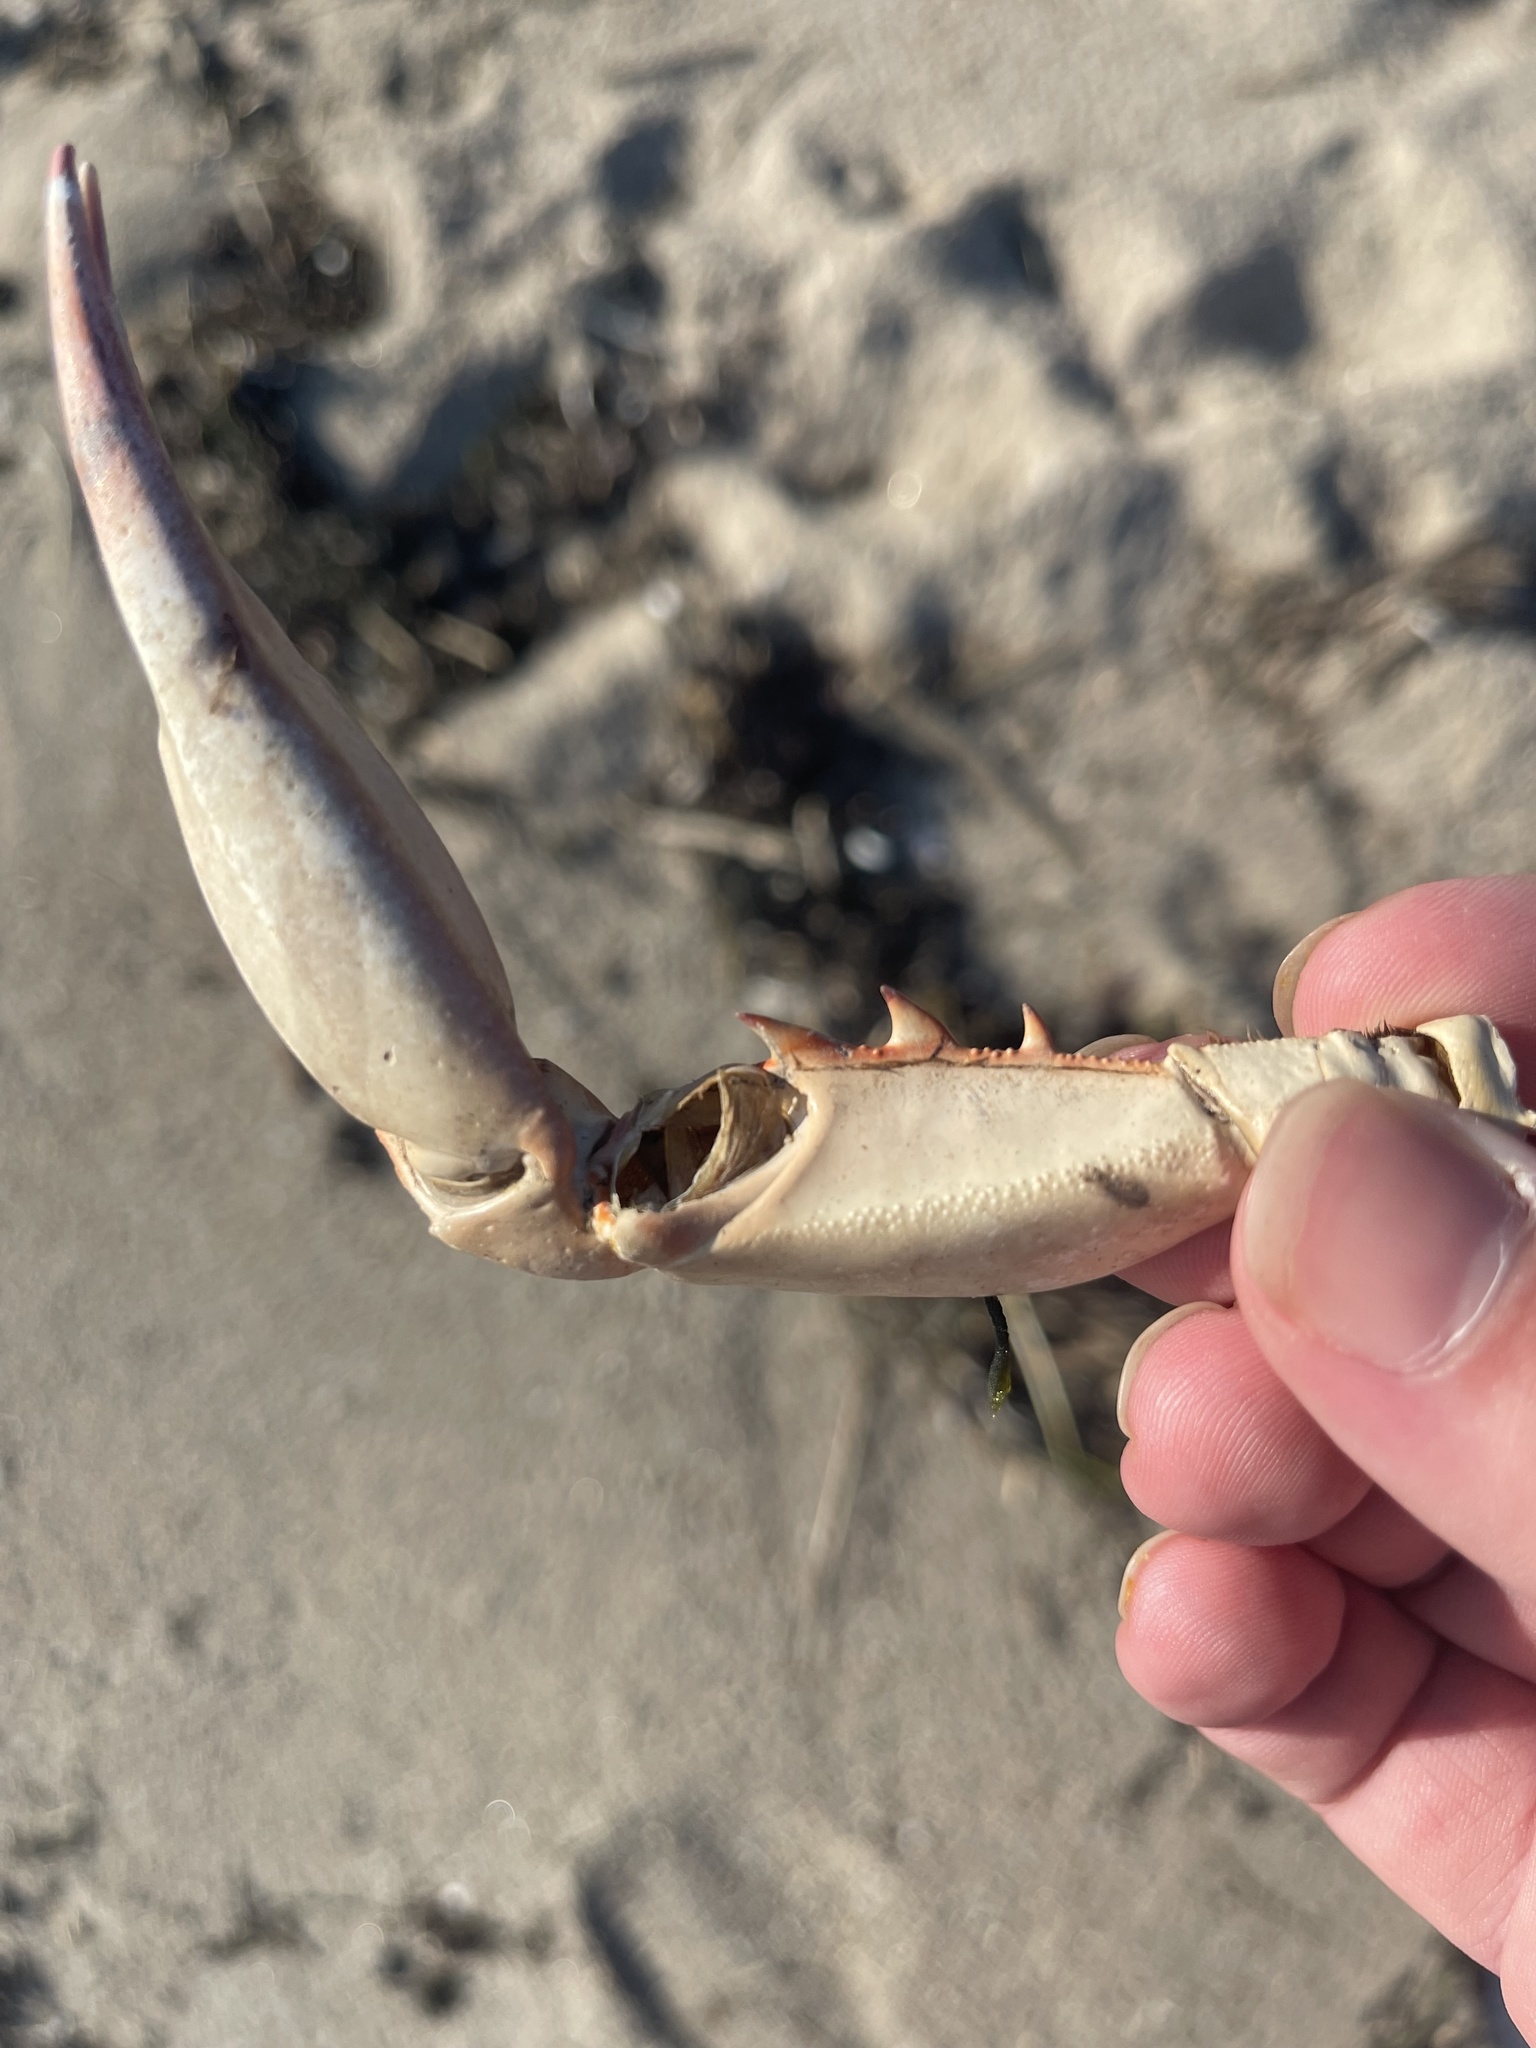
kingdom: Animalia
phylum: Arthropoda
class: Malacostraca
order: Decapoda
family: Portunidae
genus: Callinectes
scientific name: Callinectes sapidus
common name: Blue crab
